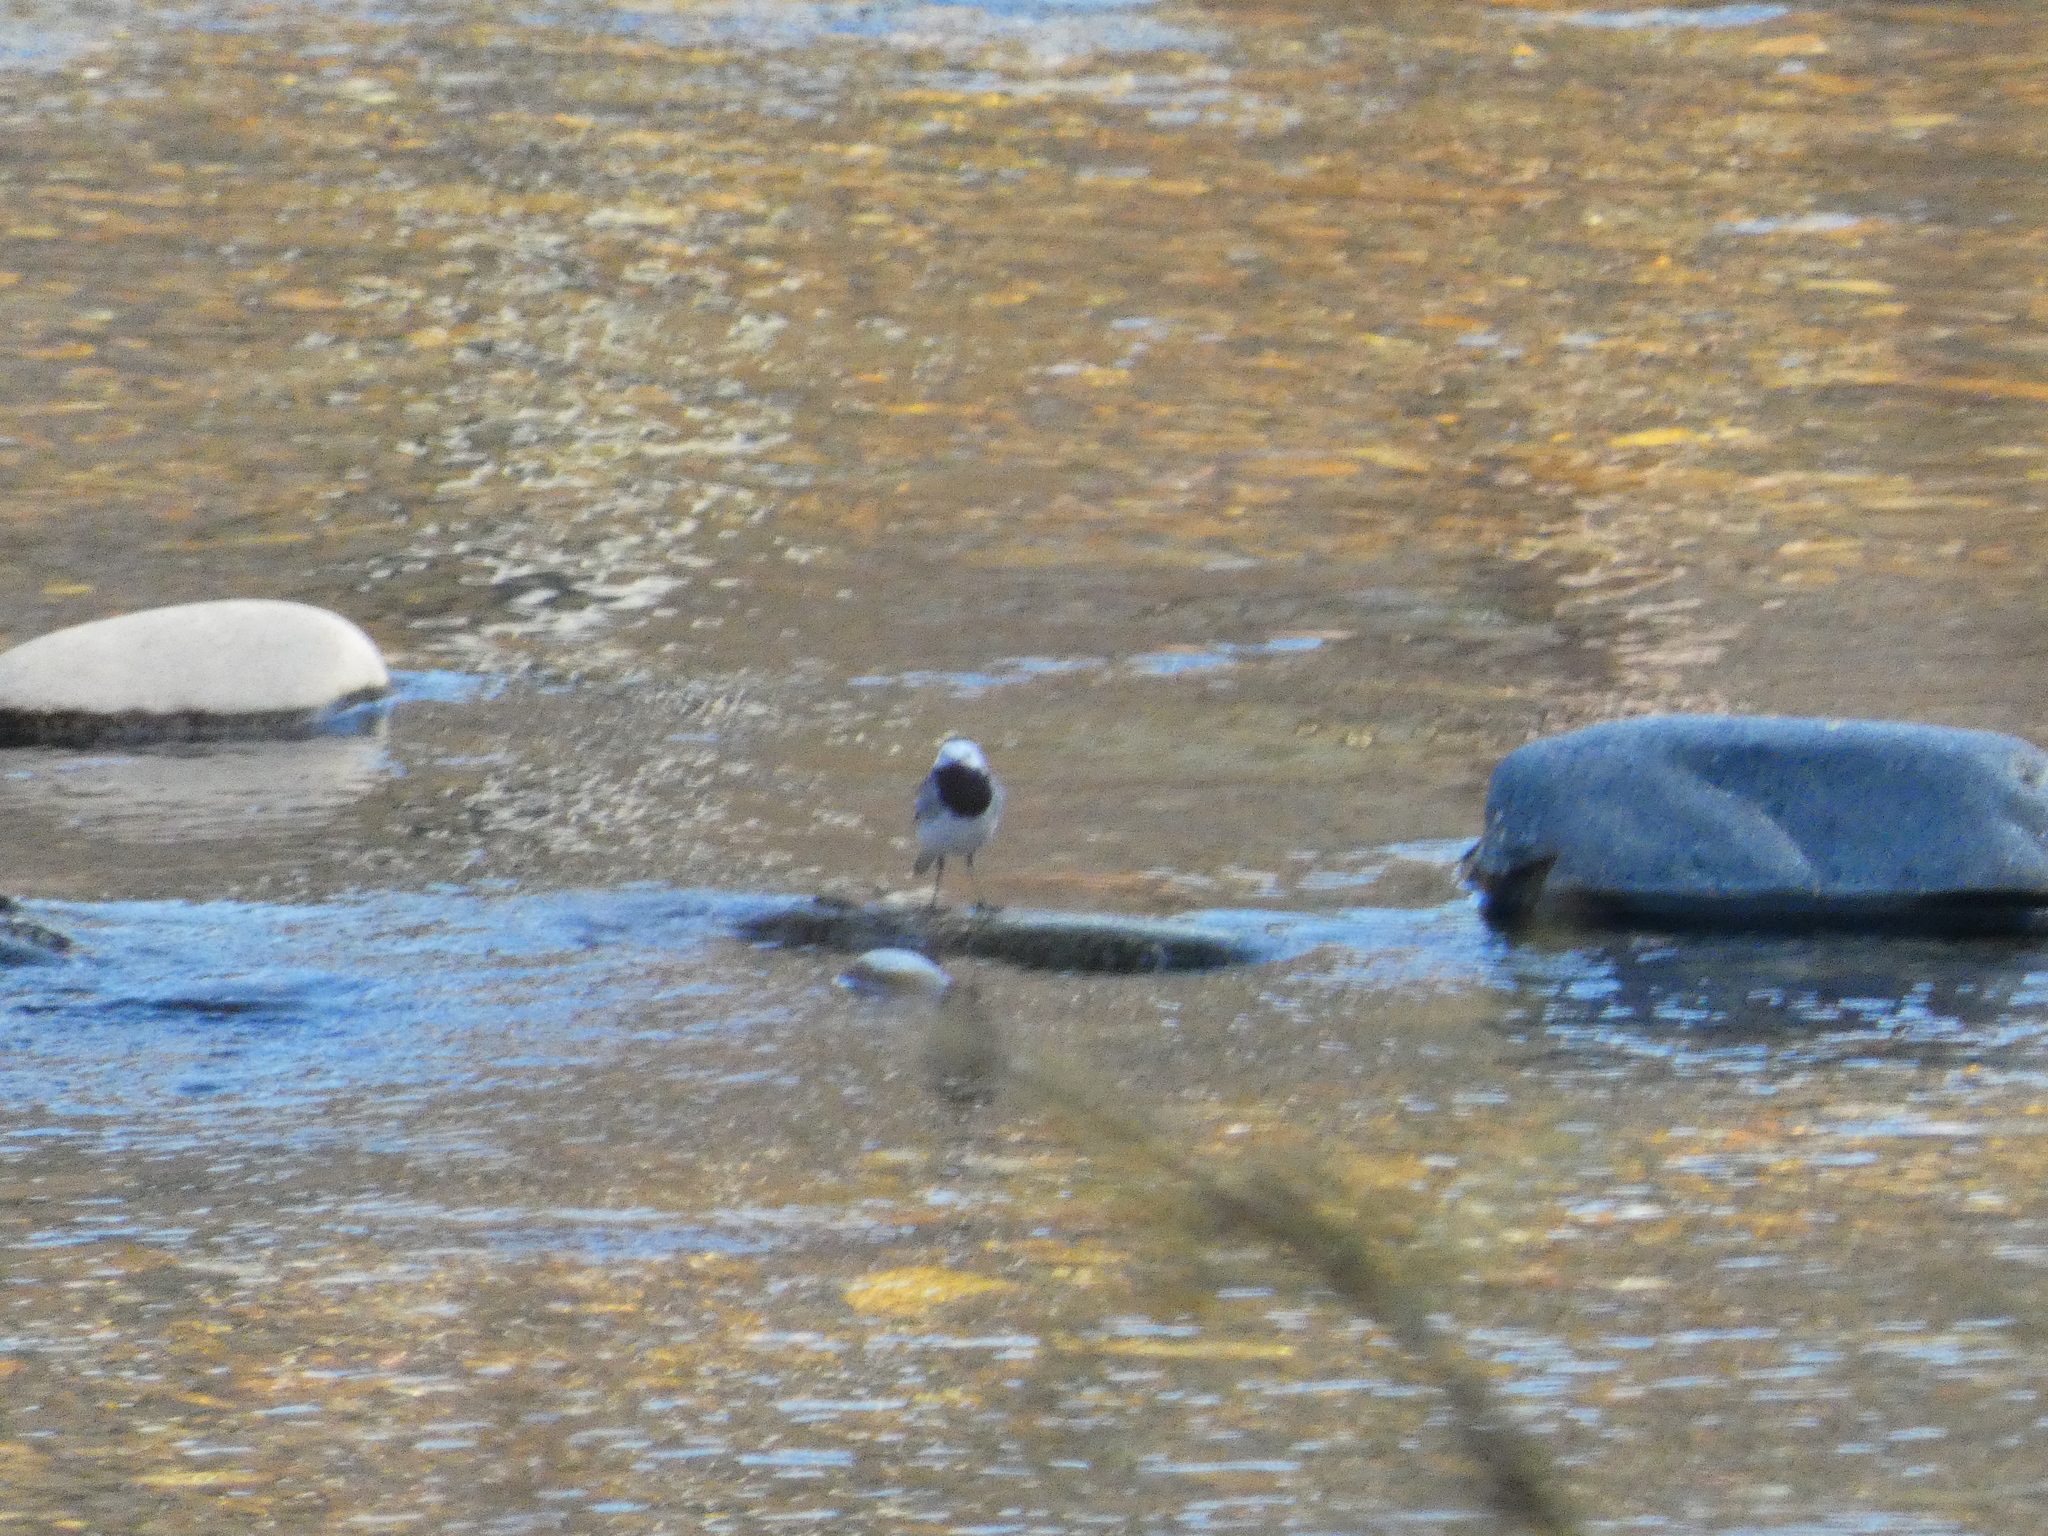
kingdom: Animalia
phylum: Chordata
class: Aves
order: Passeriformes
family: Motacillidae
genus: Motacilla
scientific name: Motacilla alba
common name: White wagtail
